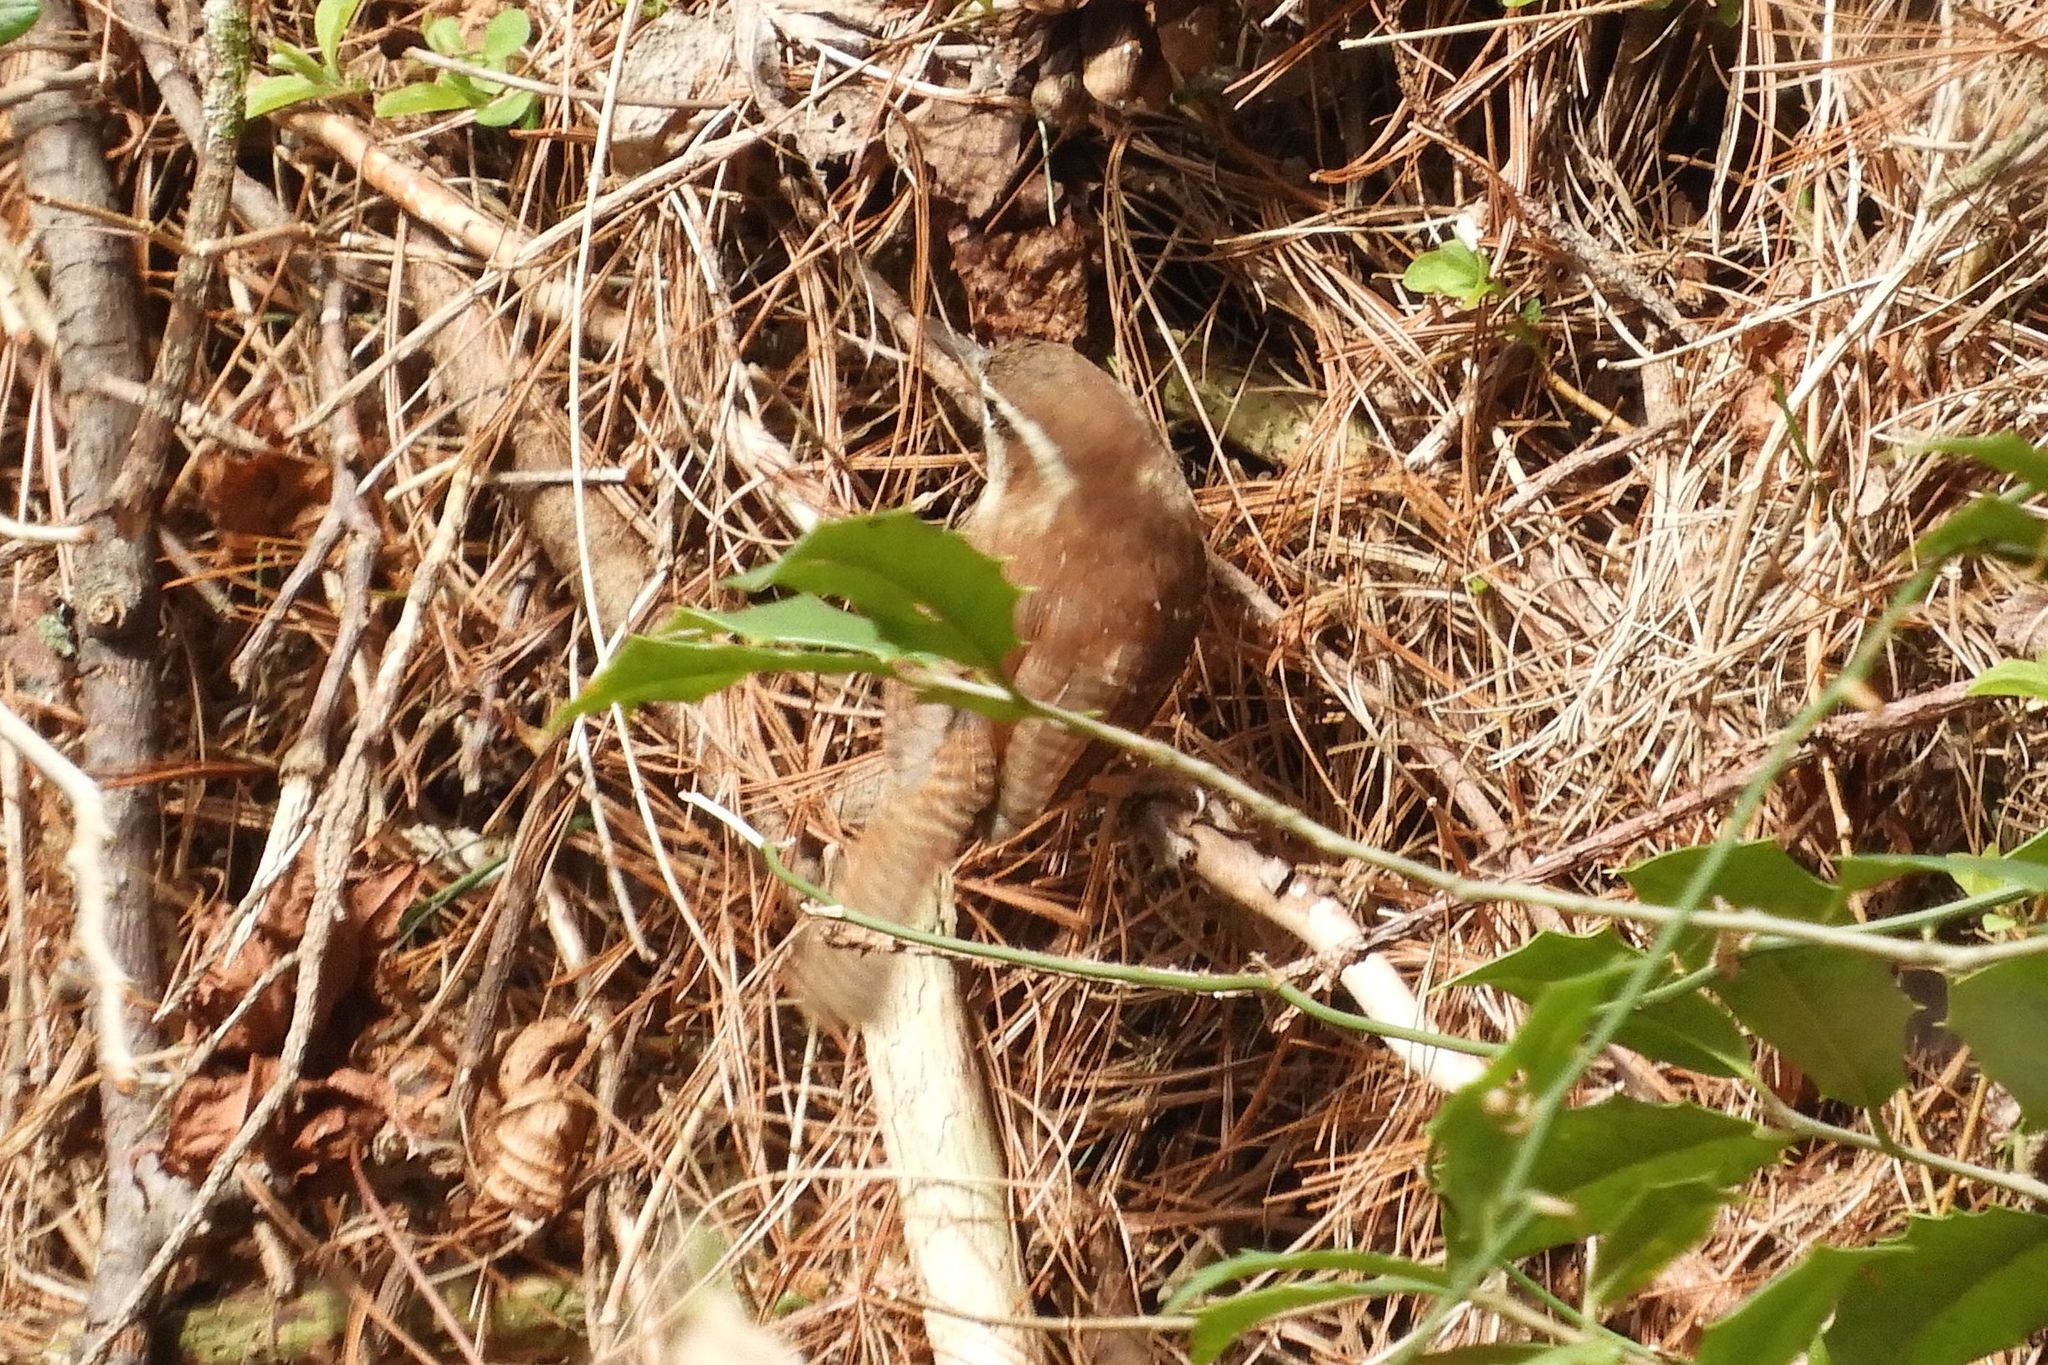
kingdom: Animalia
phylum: Chordata
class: Aves
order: Passeriformes
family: Troglodytidae
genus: Thryothorus
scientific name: Thryothorus ludovicianus
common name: Carolina wren
